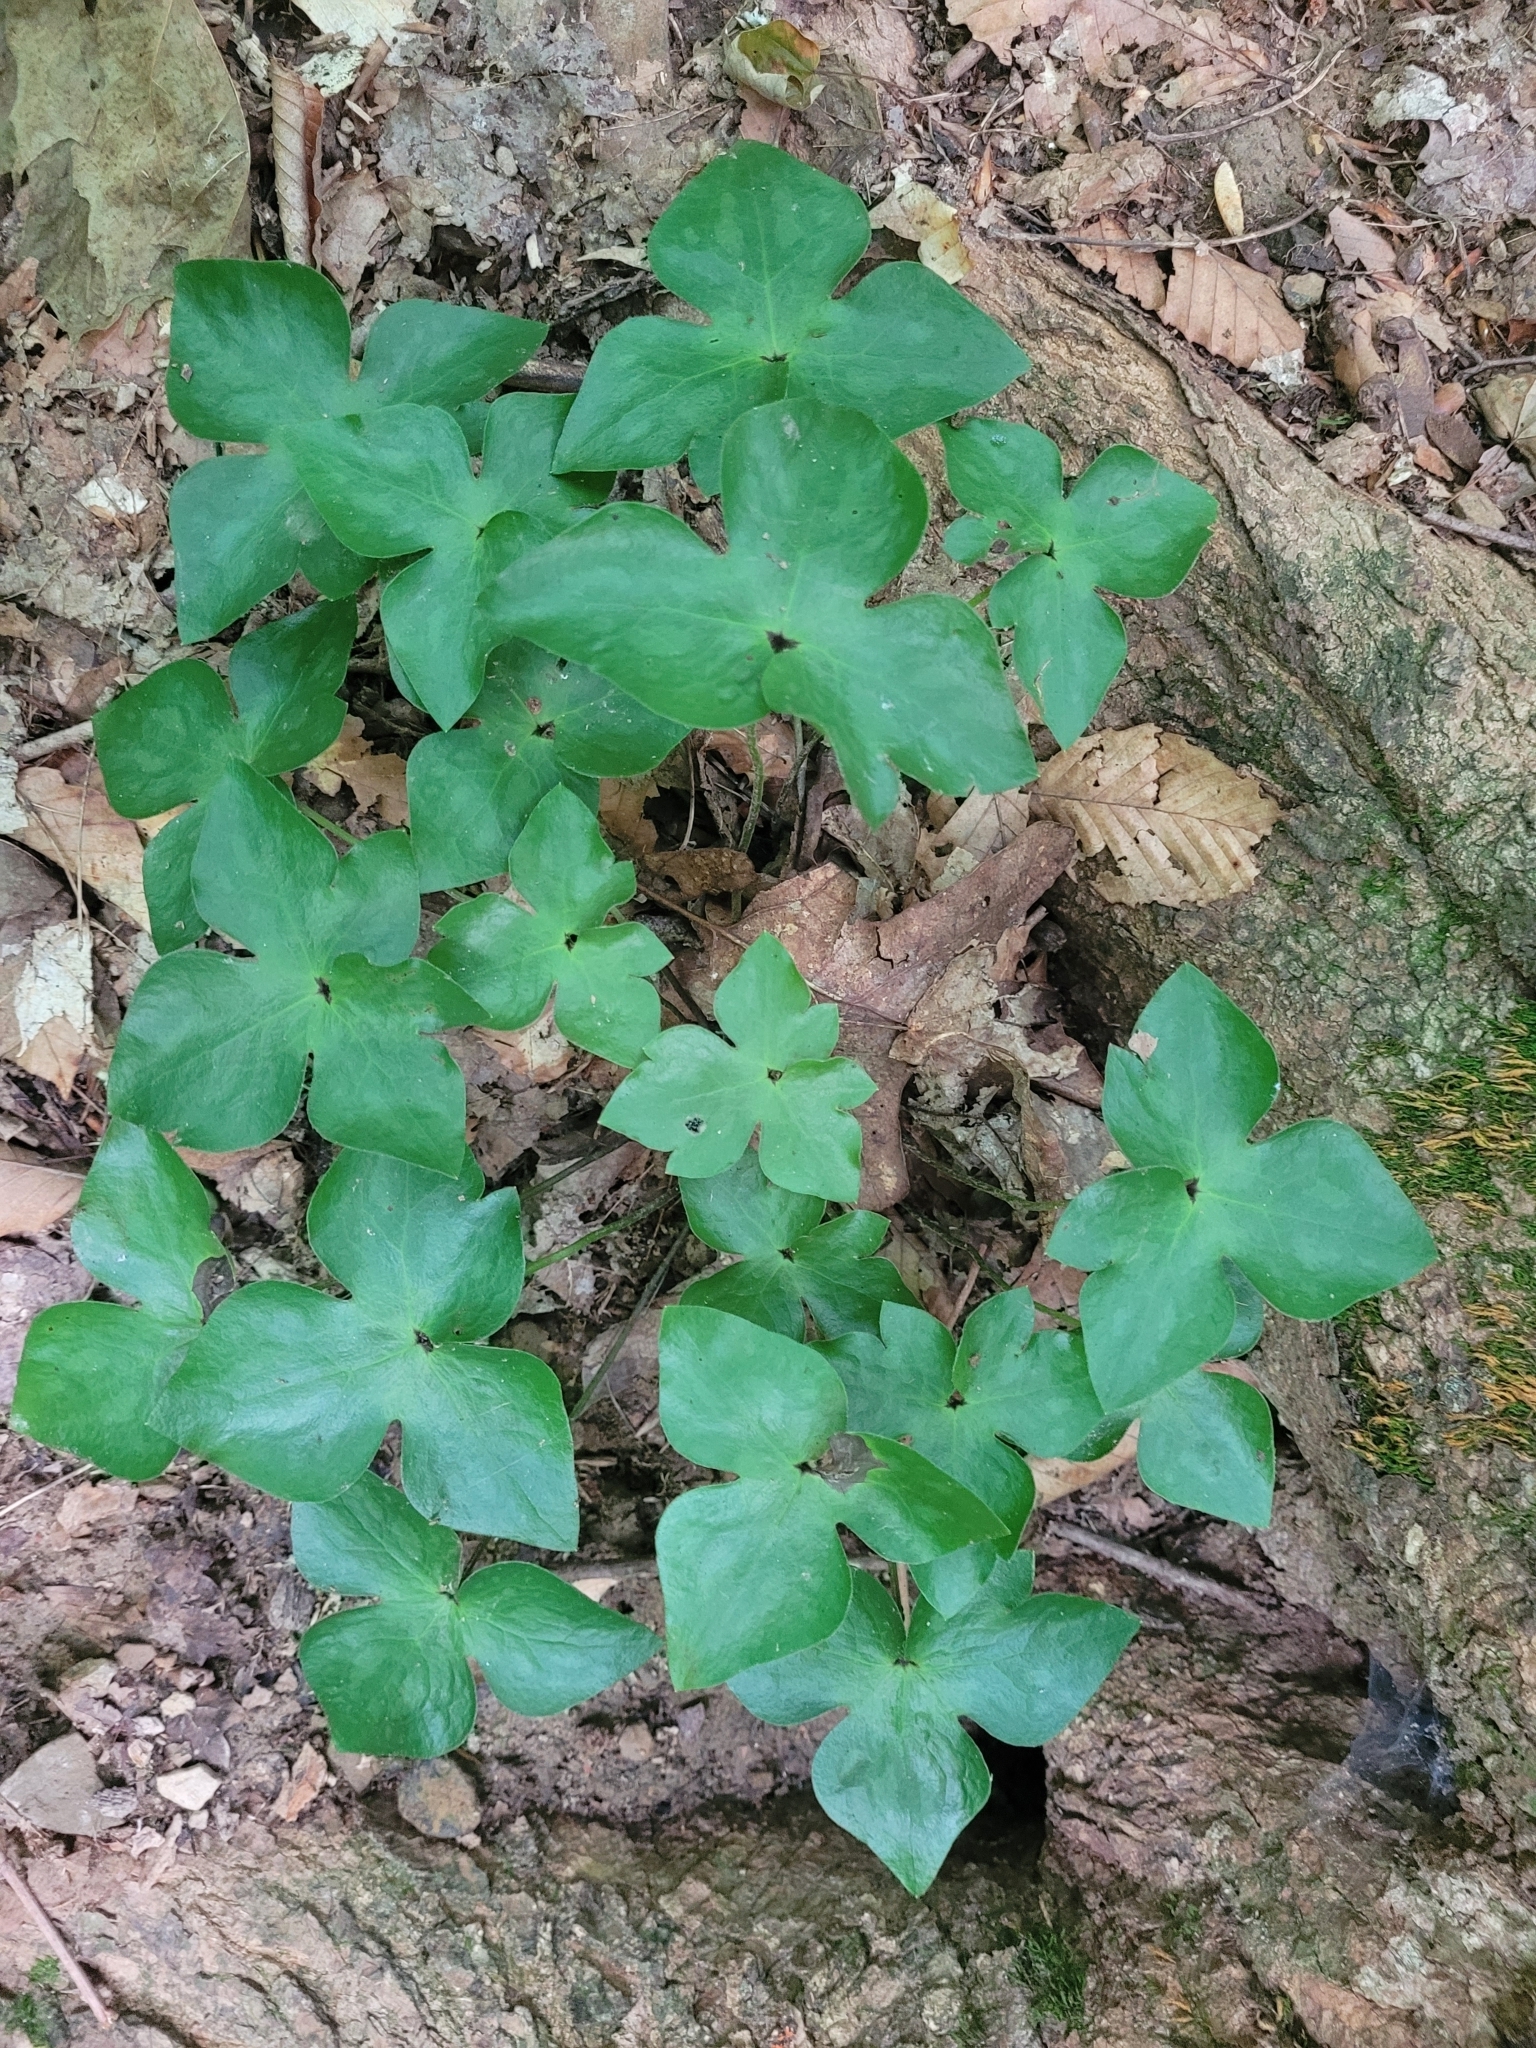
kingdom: Plantae
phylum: Tracheophyta
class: Magnoliopsida
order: Ranunculales
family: Ranunculaceae
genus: Hepatica
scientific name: Hepatica acutiloba
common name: Sharp-lobed hepatica
